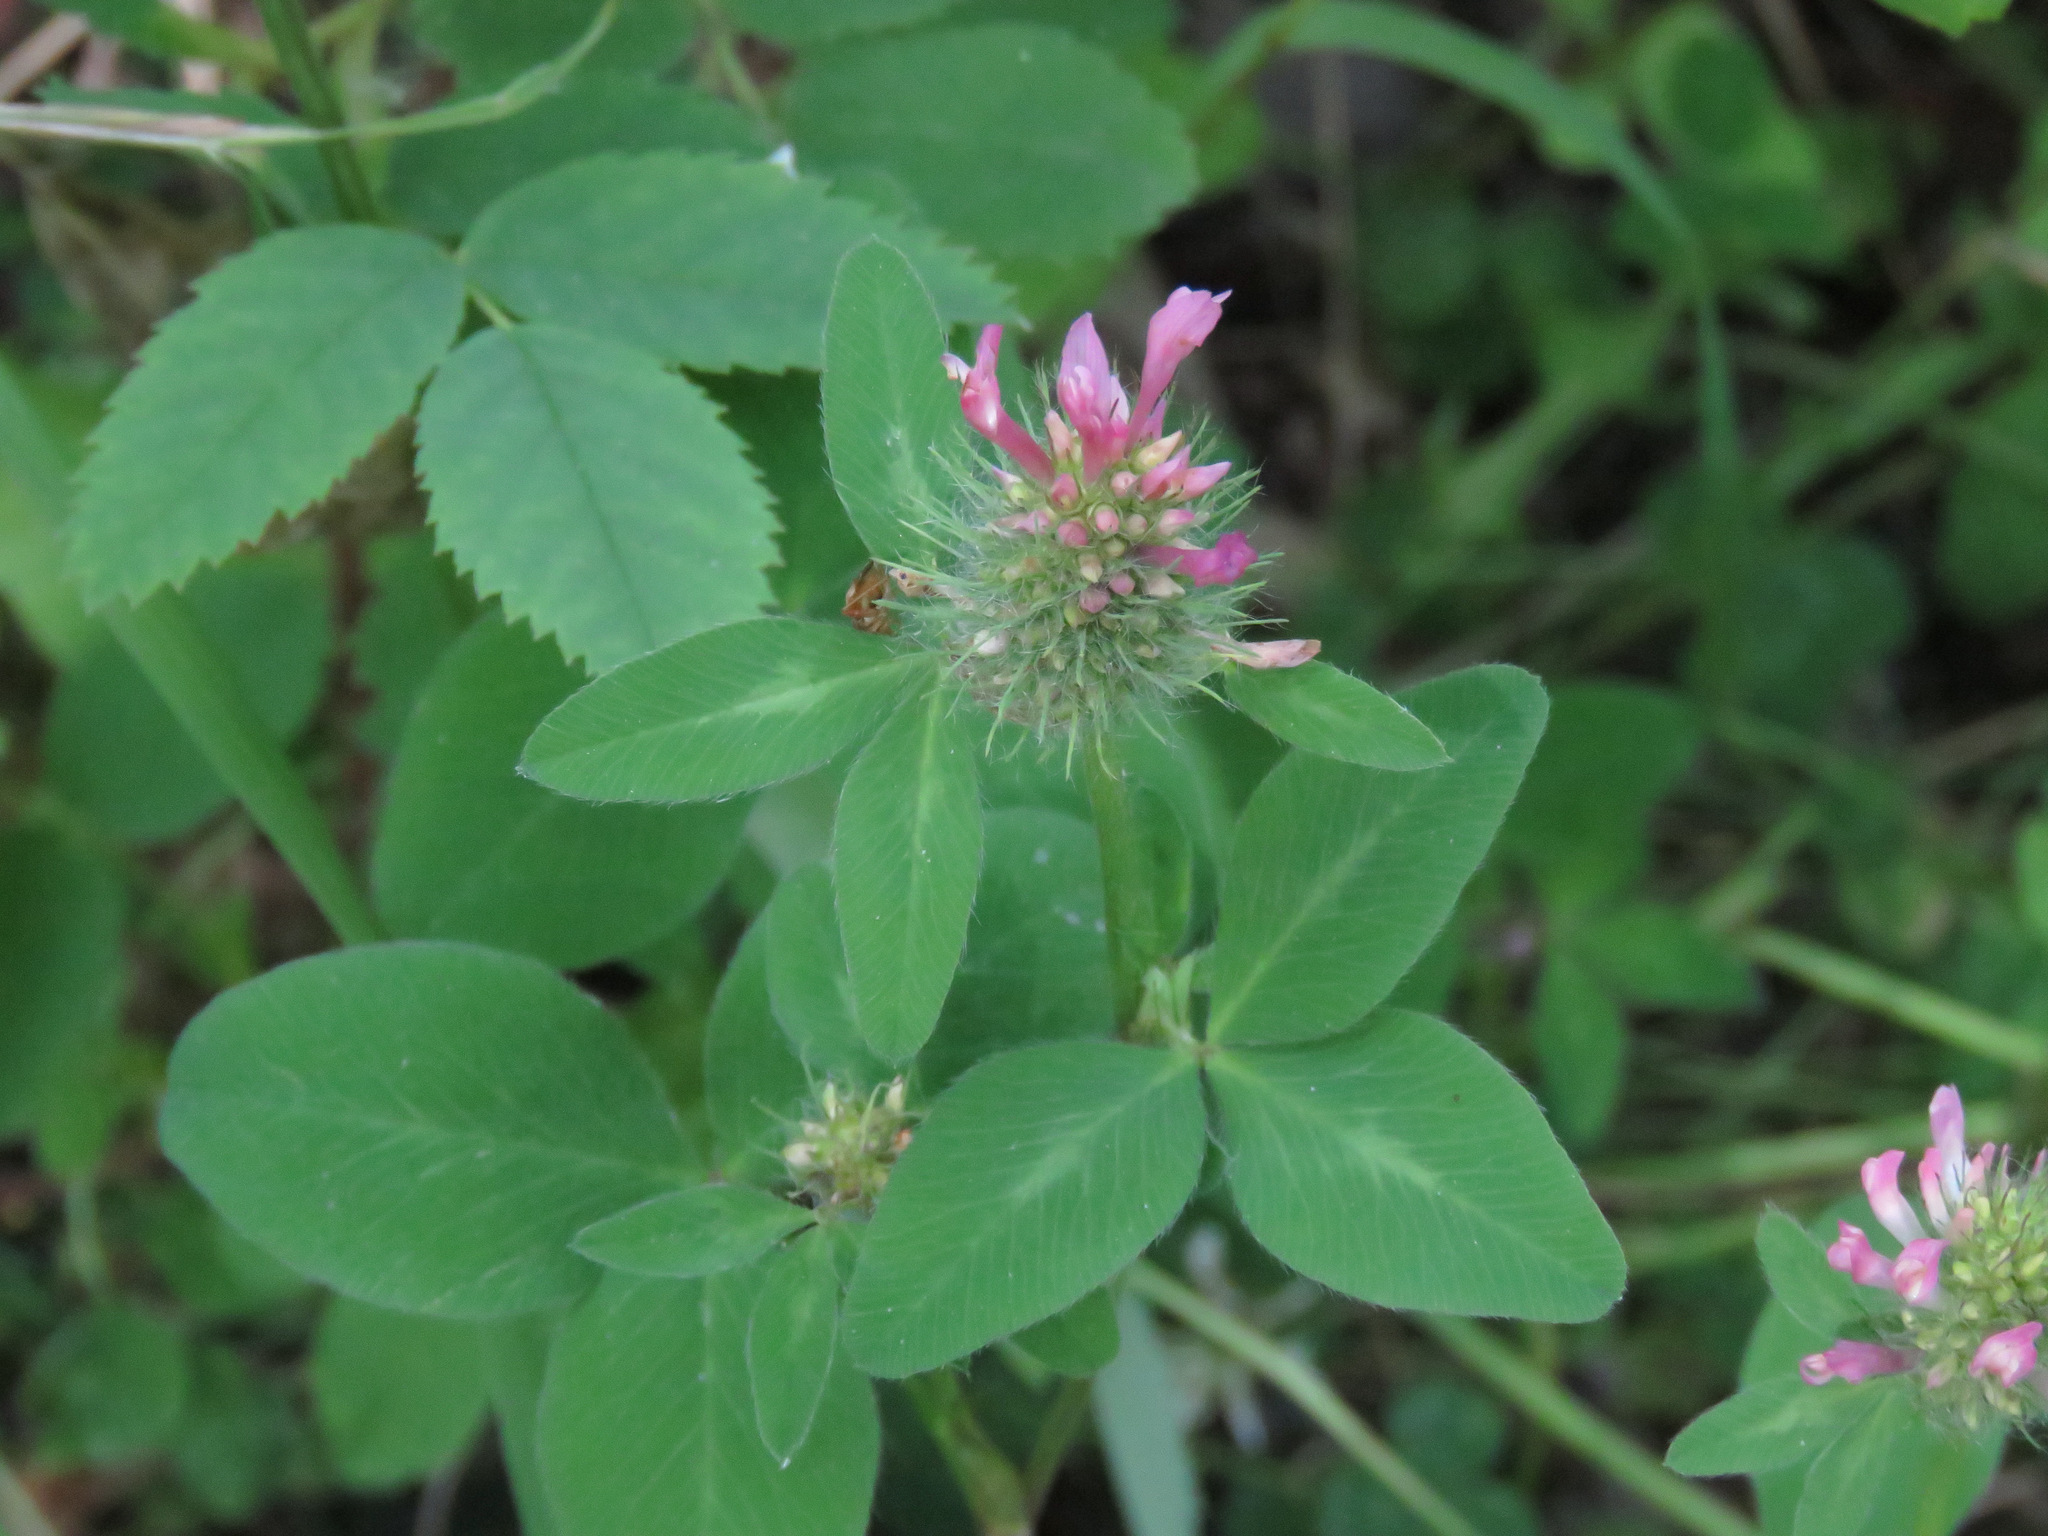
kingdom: Plantae
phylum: Tracheophyta
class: Magnoliopsida
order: Fabales
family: Fabaceae
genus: Trifolium
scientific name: Trifolium pratense
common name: Red clover
